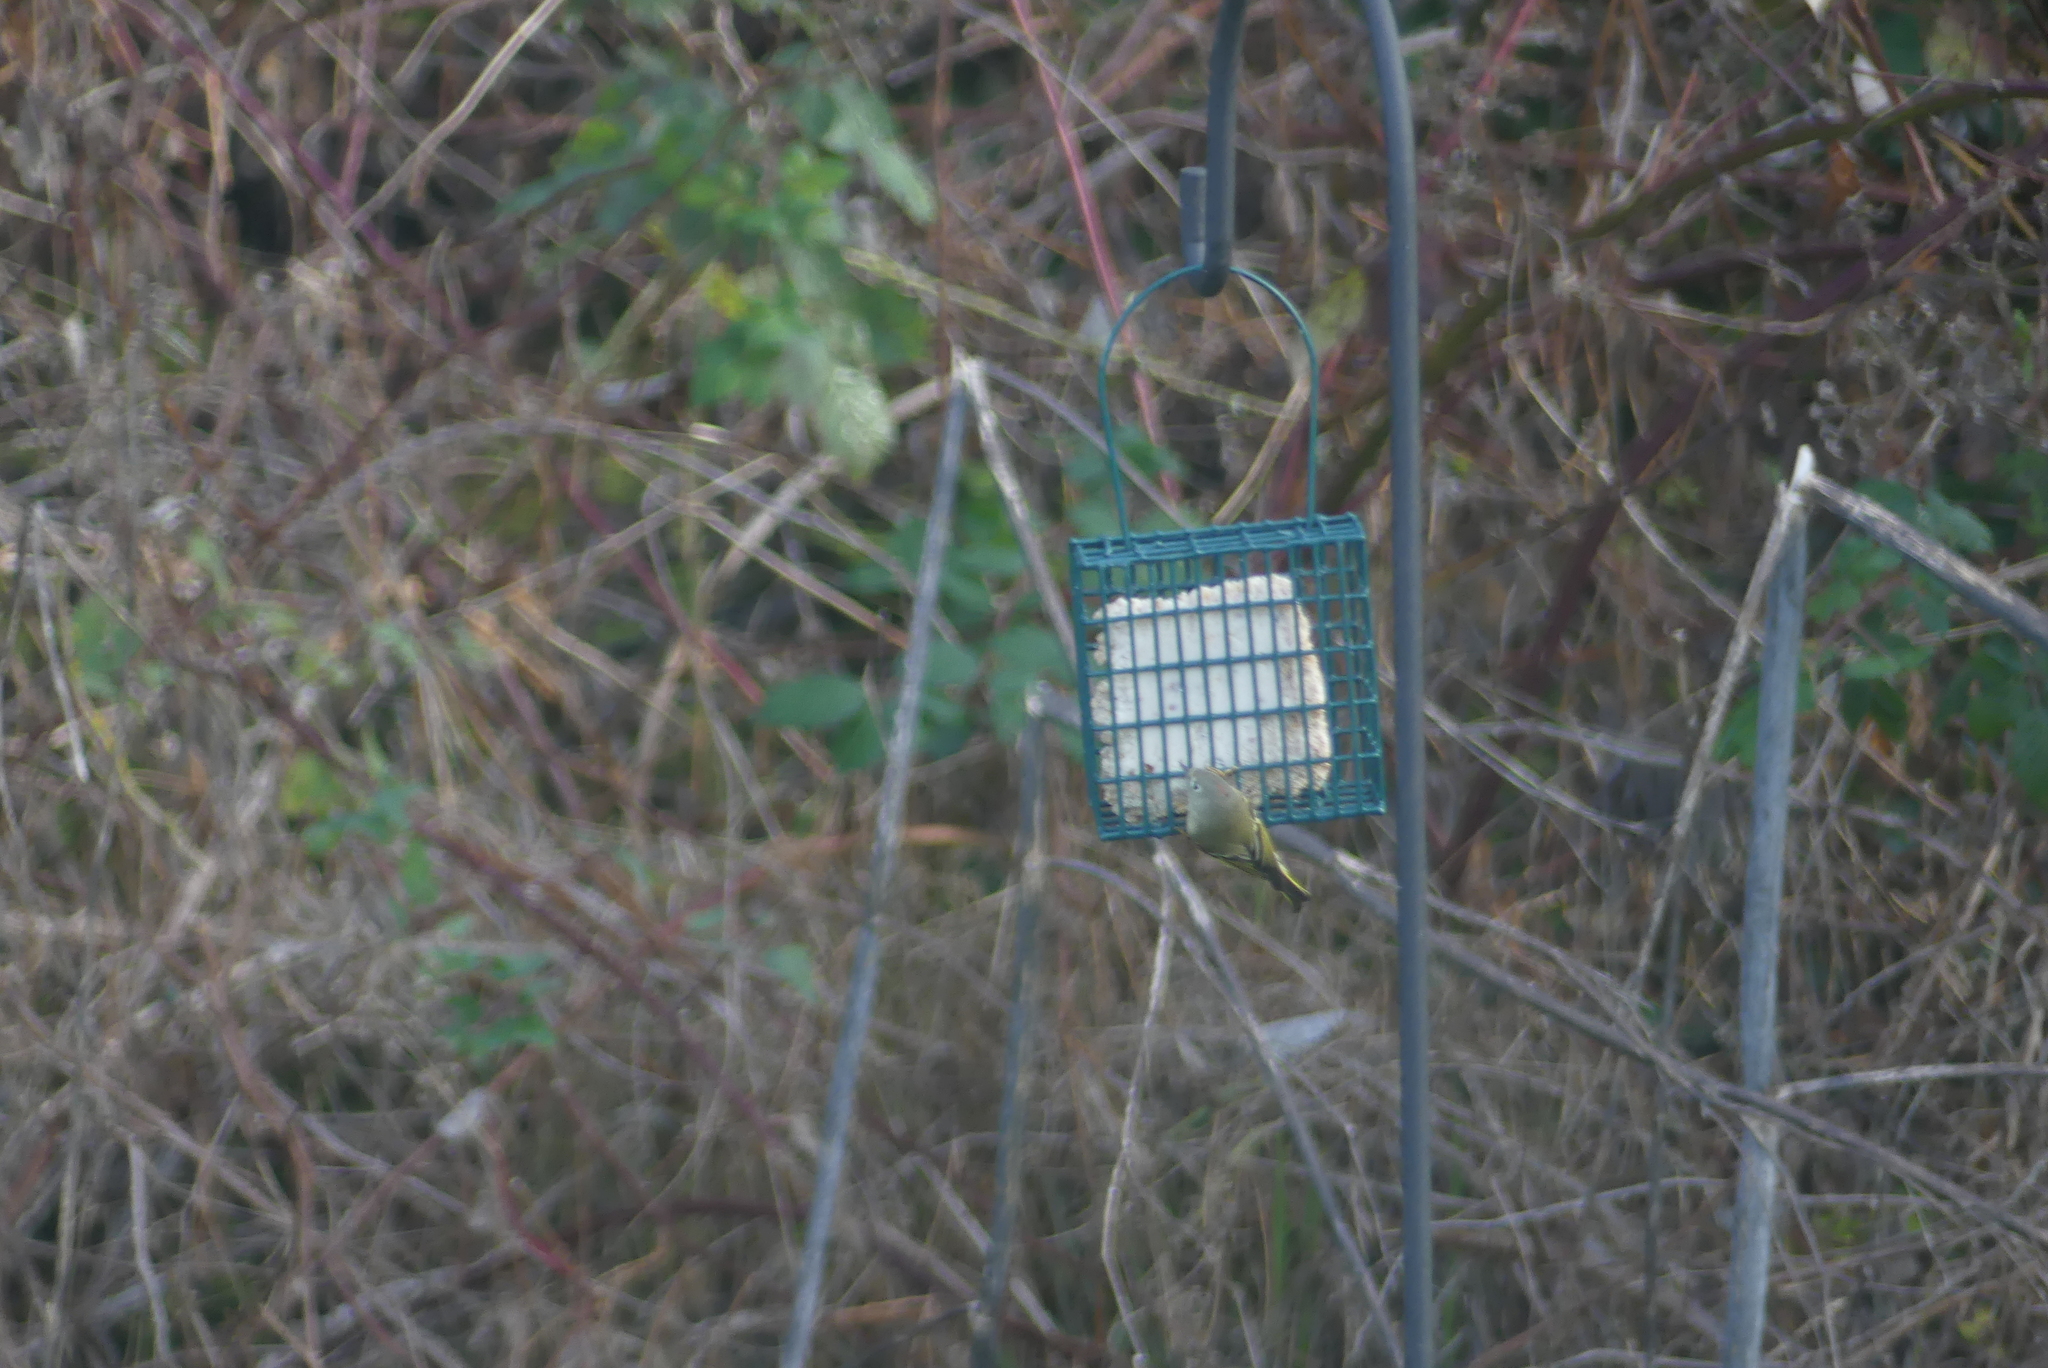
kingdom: Animalia
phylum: Chordata
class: Aves
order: Passeriformes
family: Regulidae
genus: Regulus
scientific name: Regulus calendula
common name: Ruby-crowned kinglet
